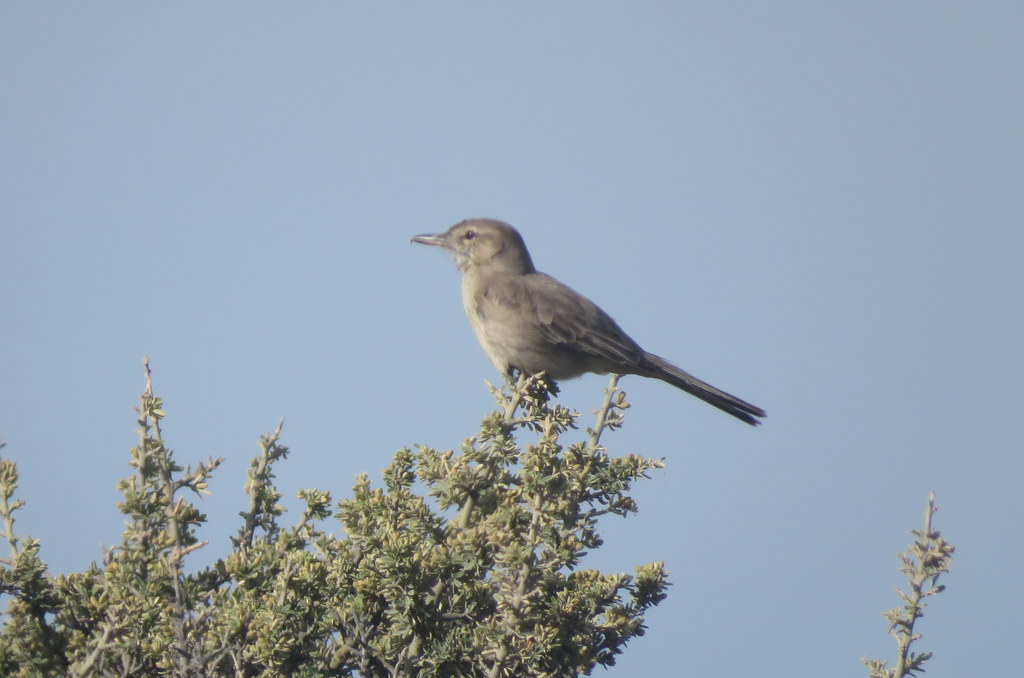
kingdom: Animalia
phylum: Chordata
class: Aves
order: Passeriformes
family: Tyrannidae
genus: Agriornis
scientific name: Agriornis micropterus
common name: Grey-bellied shrike-tyrant
